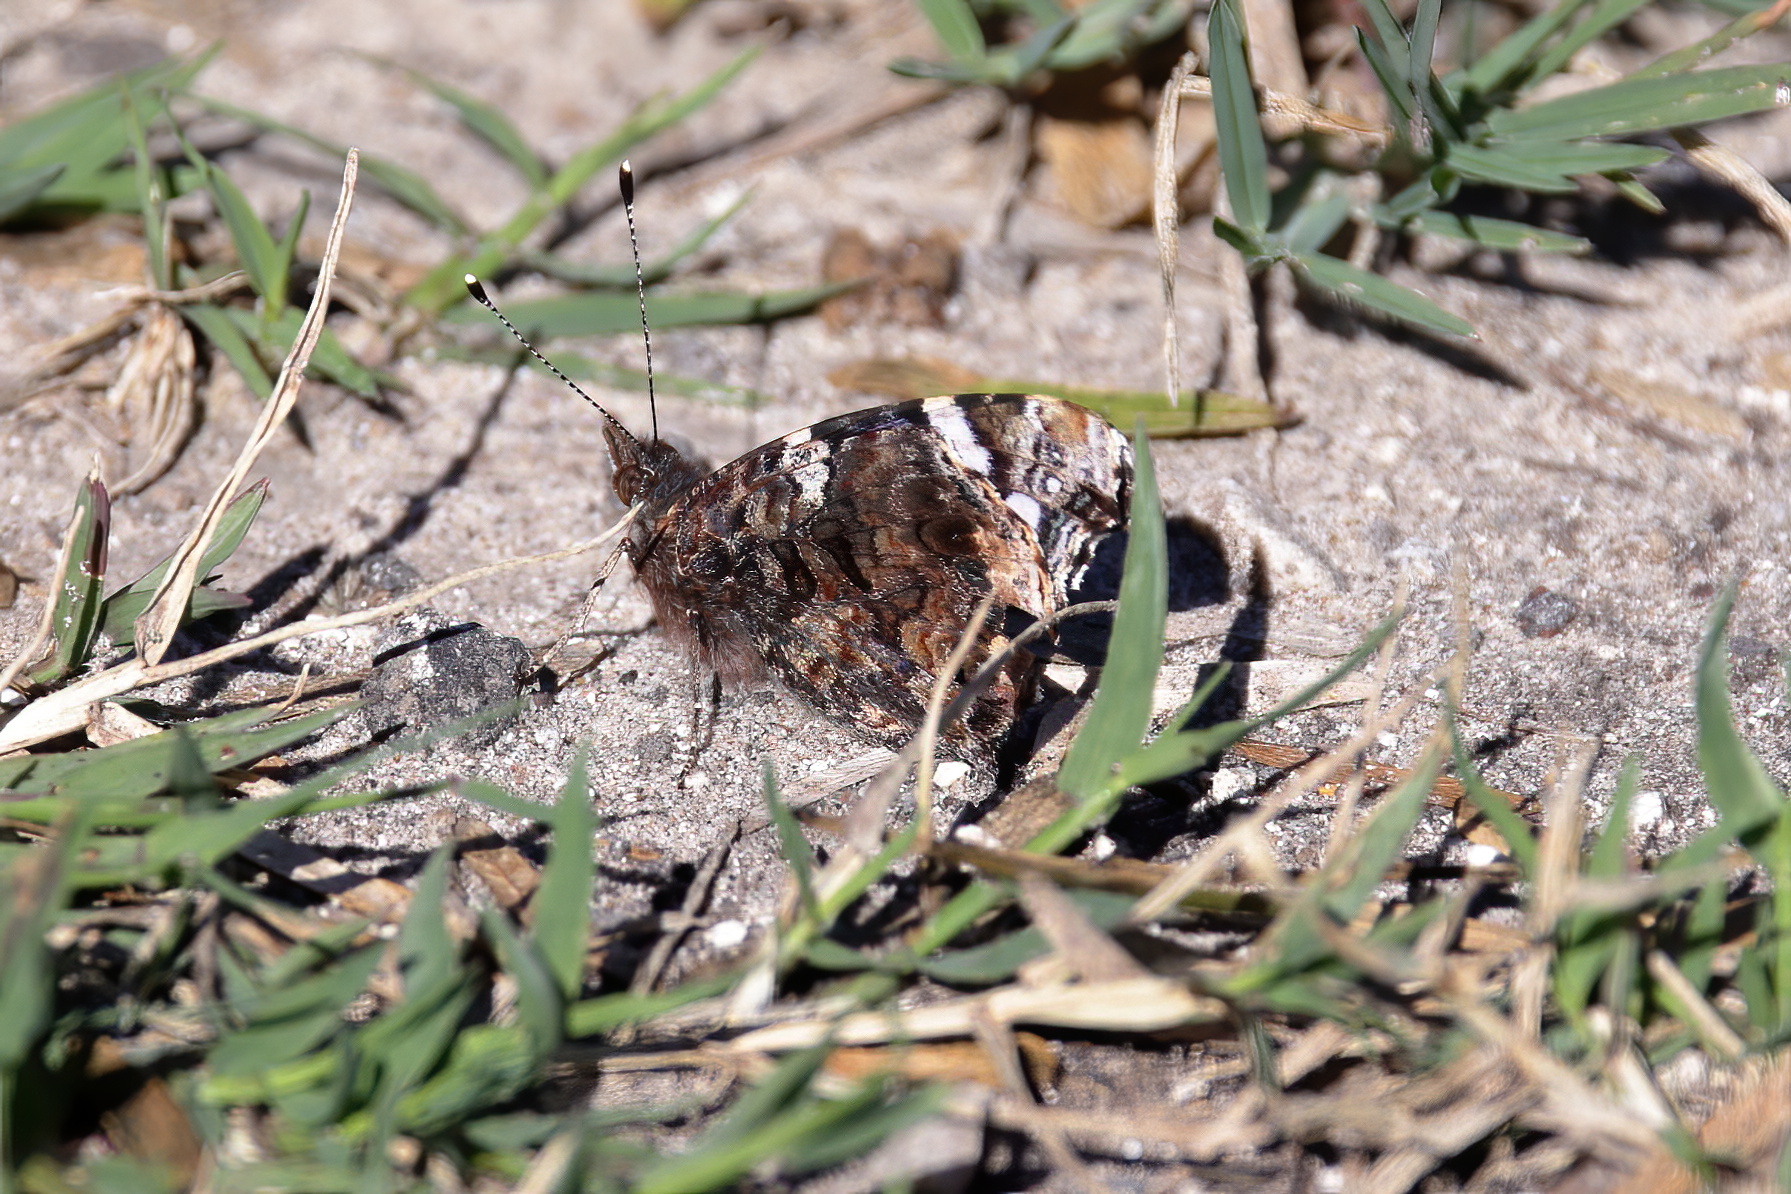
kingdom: Animalia
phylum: Arthropoda
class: Insecta
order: Lepidoptera
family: Nymphalidae
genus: Vanessa
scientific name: Vanessa atalanta
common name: Red admiral
